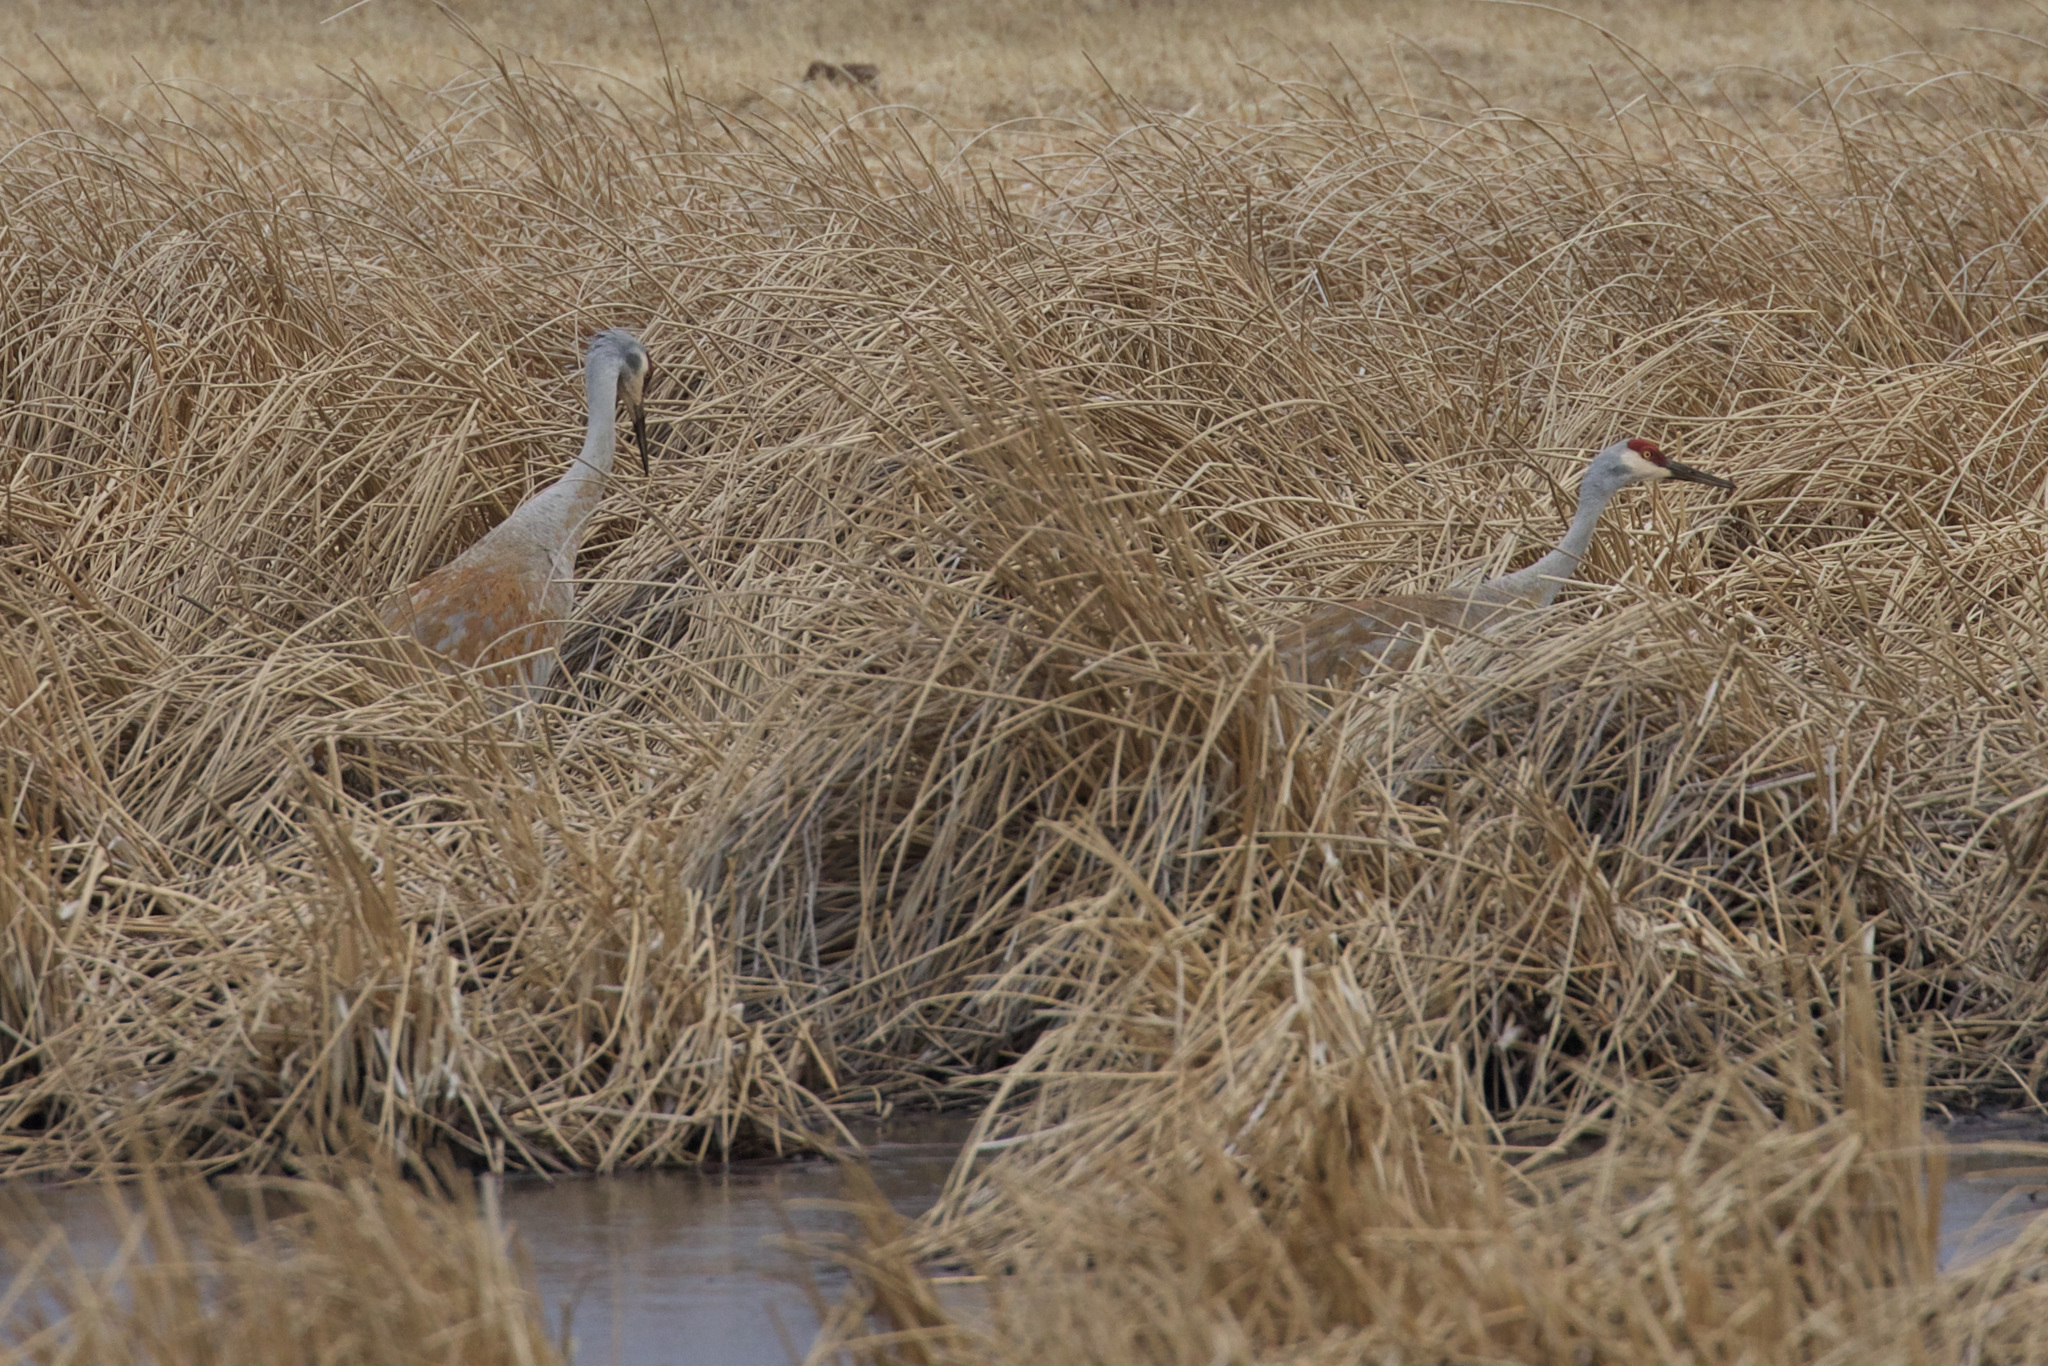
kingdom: Animalia
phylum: Chordata
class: Aves
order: Gruiformes
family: Gruidae
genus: Grus
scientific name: Grus canadensis
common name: Sandhill crane
